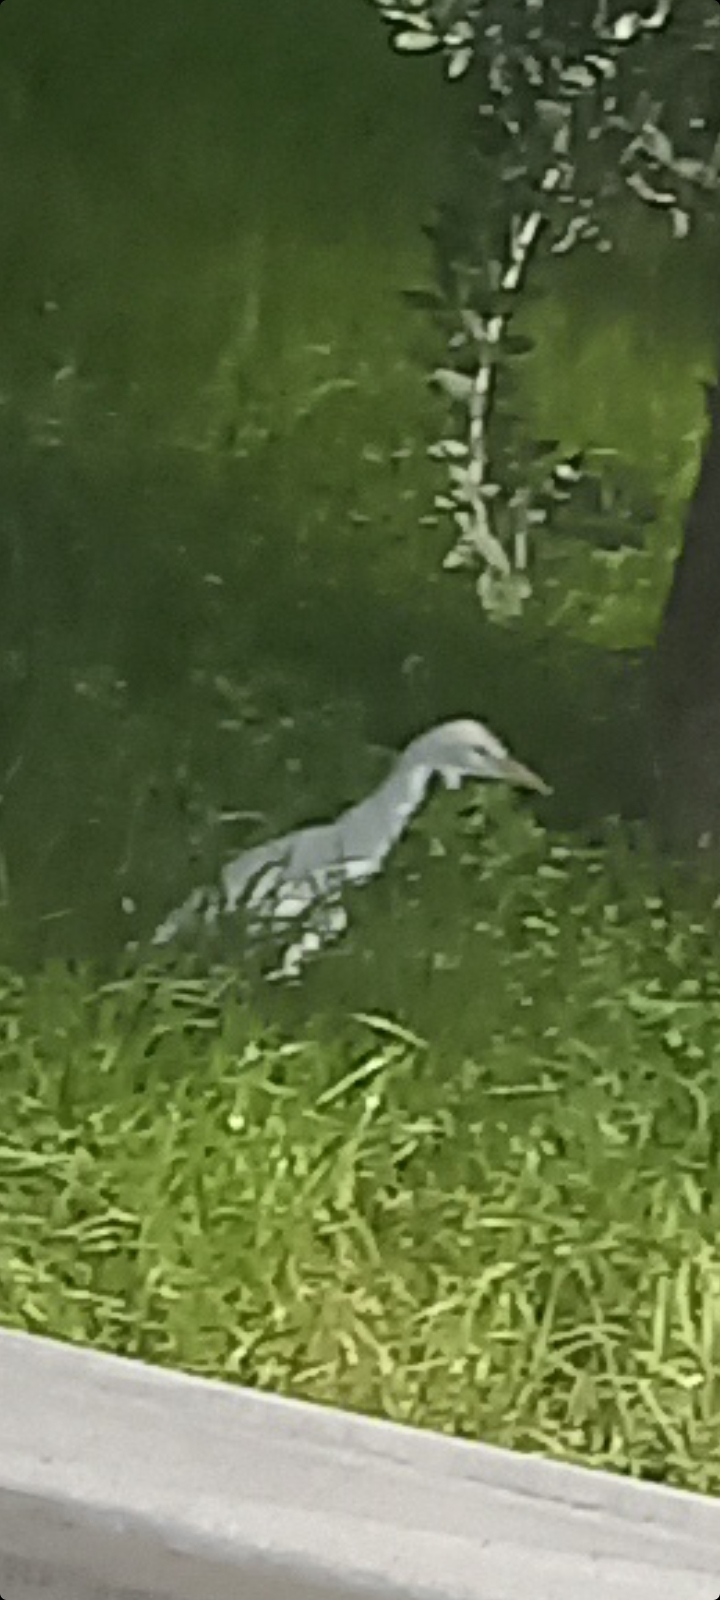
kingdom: Animalia
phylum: Chordata
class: Aves
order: Pelecaniformes
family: Ardeidae
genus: Bubulcus
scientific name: Bubulcus ibis
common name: Cattle egret
